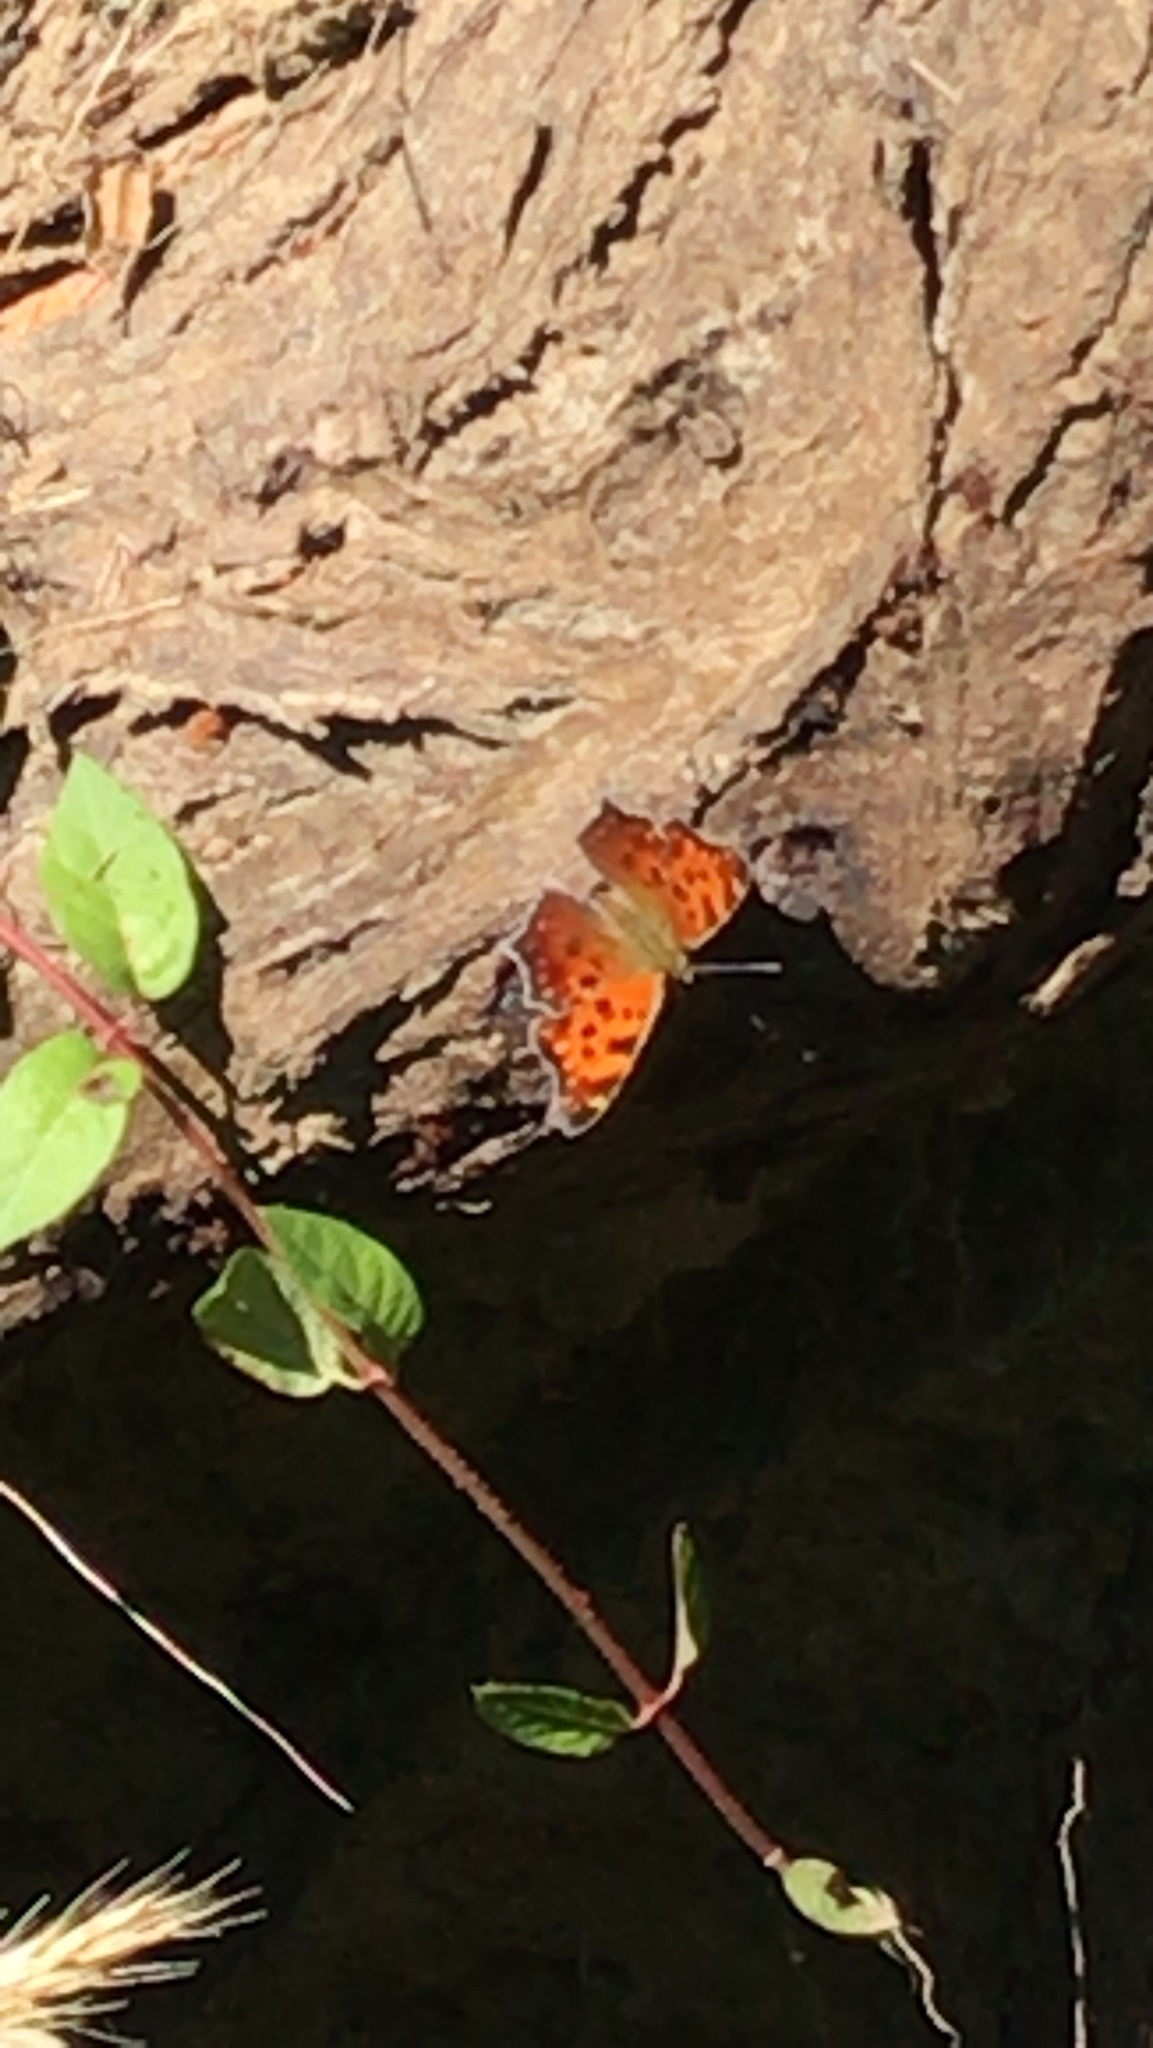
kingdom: Animalia
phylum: Arthropoda
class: Insecta
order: Lepidoptera
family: Nymphalidae
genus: Polygonia
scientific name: Polygonia comma
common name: Eastern comma
